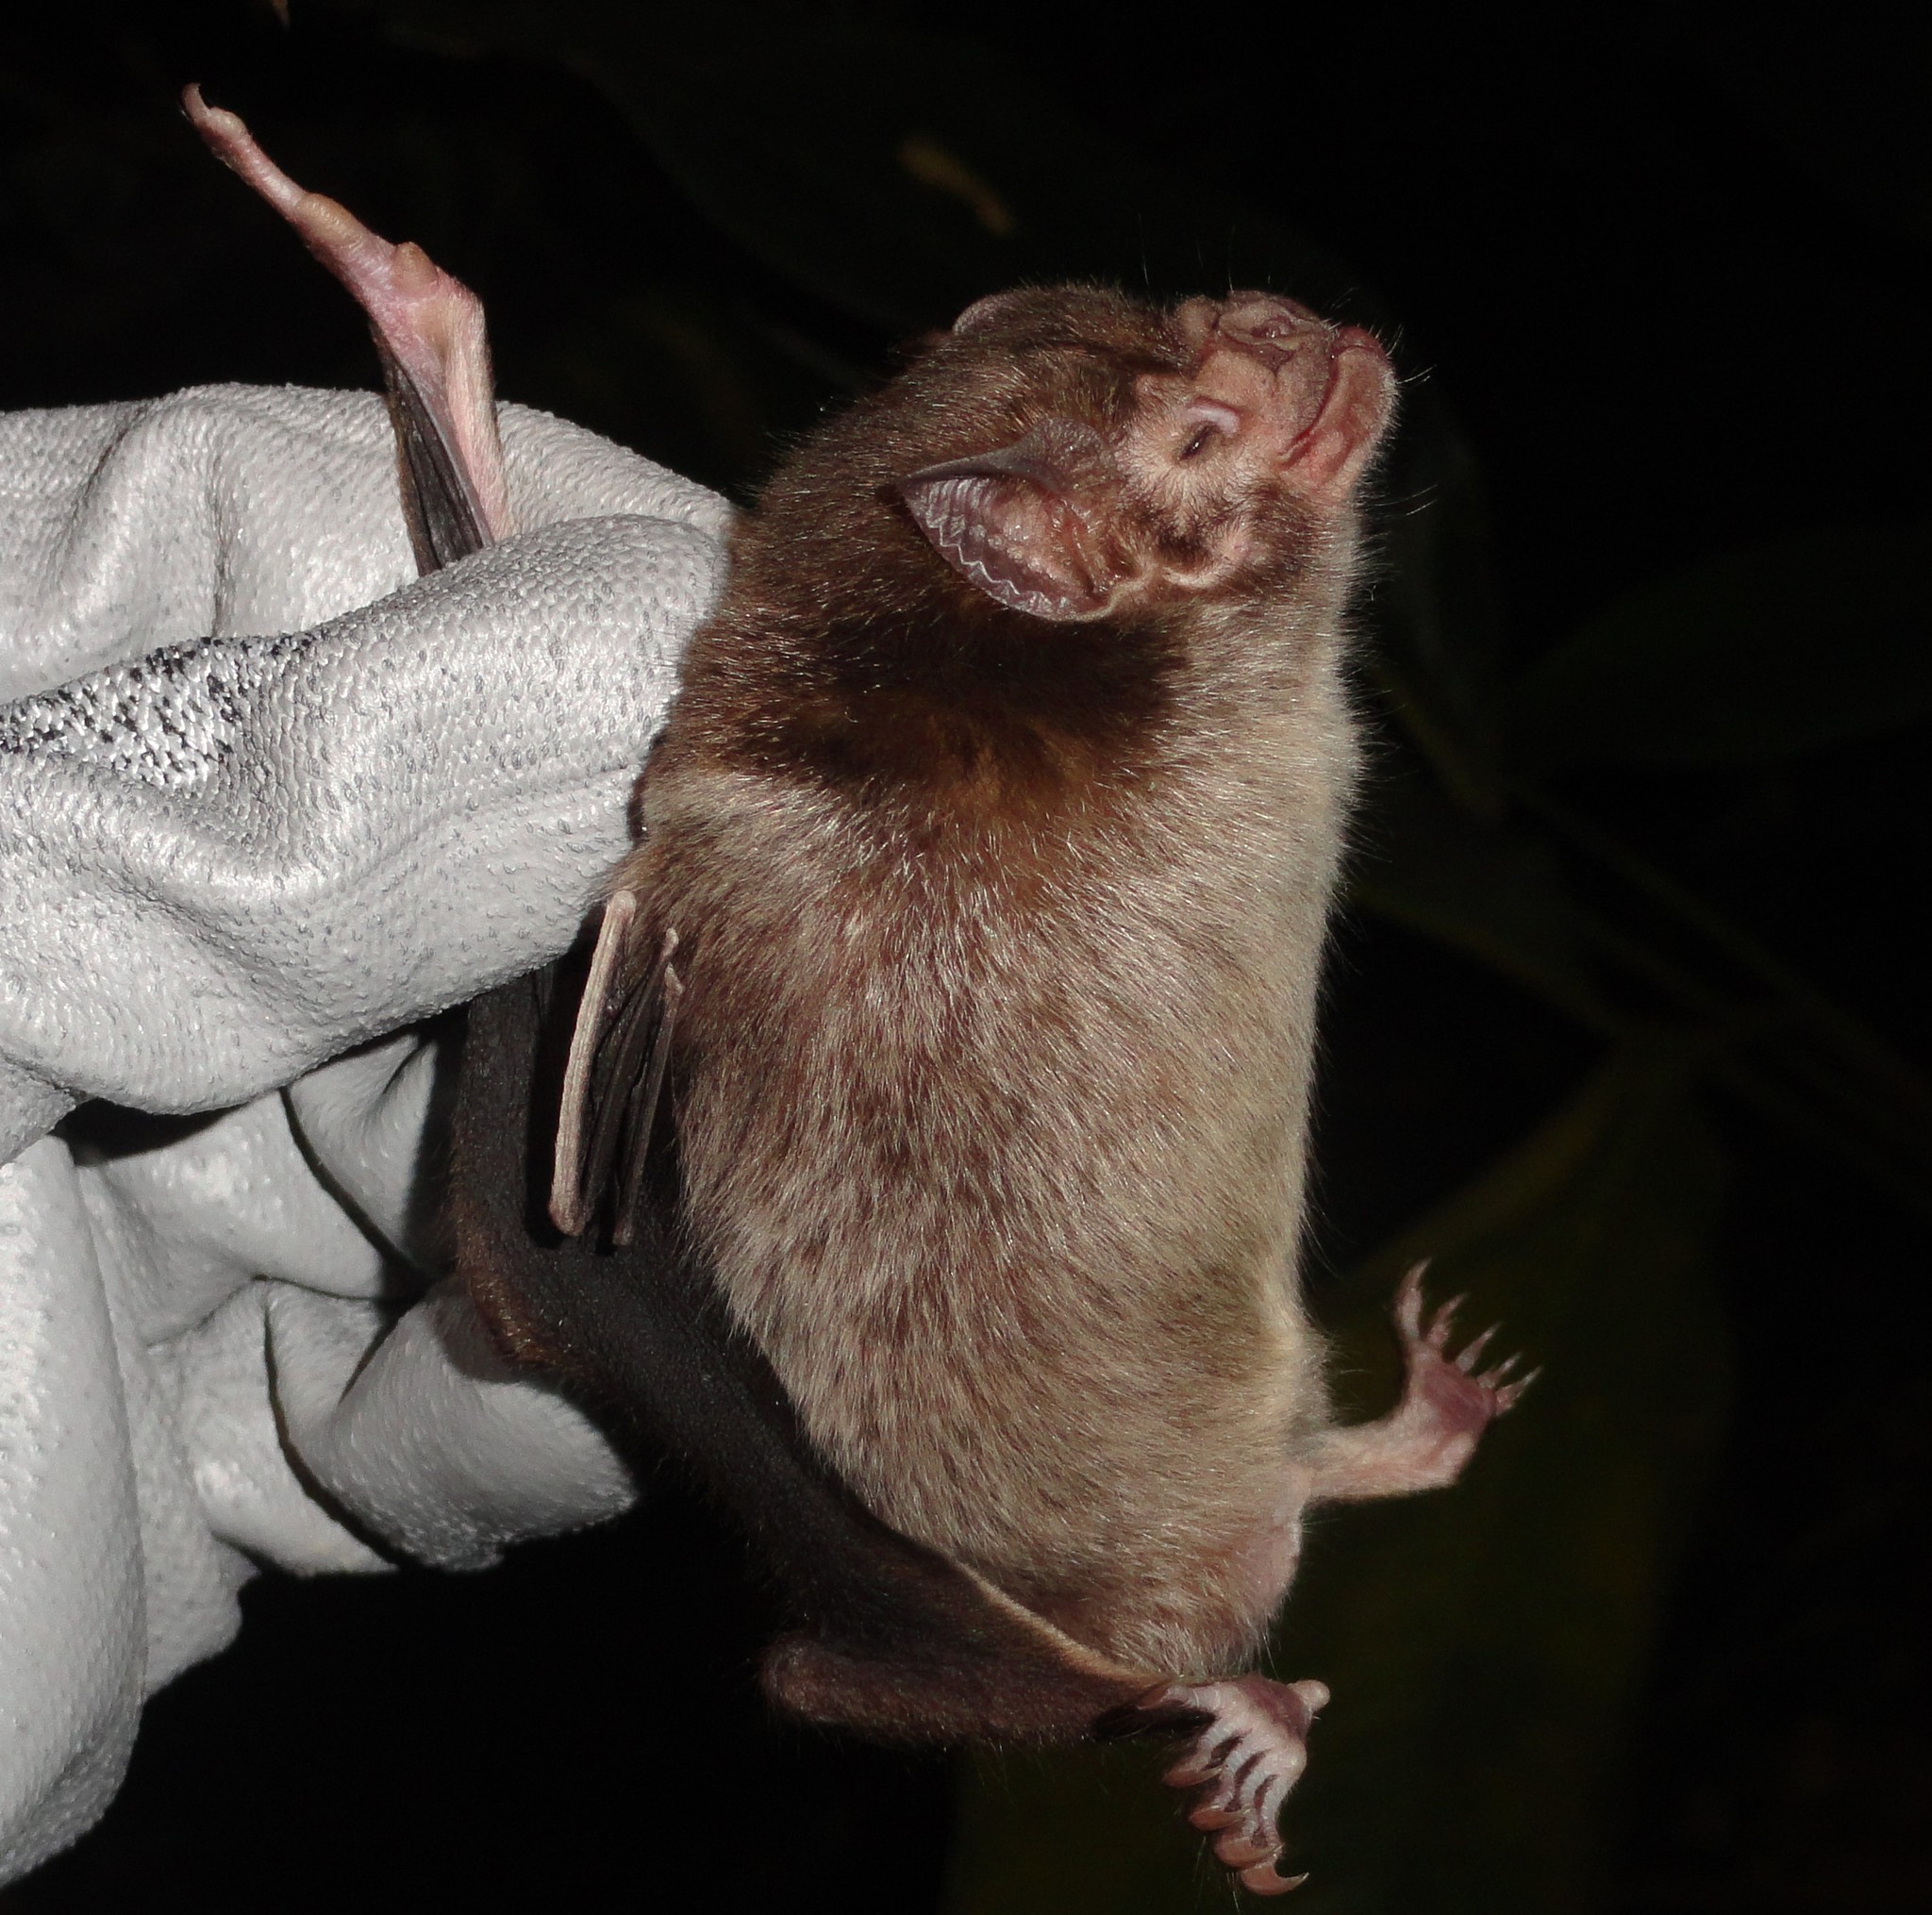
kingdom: Animalia
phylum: Chordata
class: Mammalia
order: Chiroptera
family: Phyllostomidae
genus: Desmodus
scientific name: Desmodus rotundus
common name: Common vampire bat
